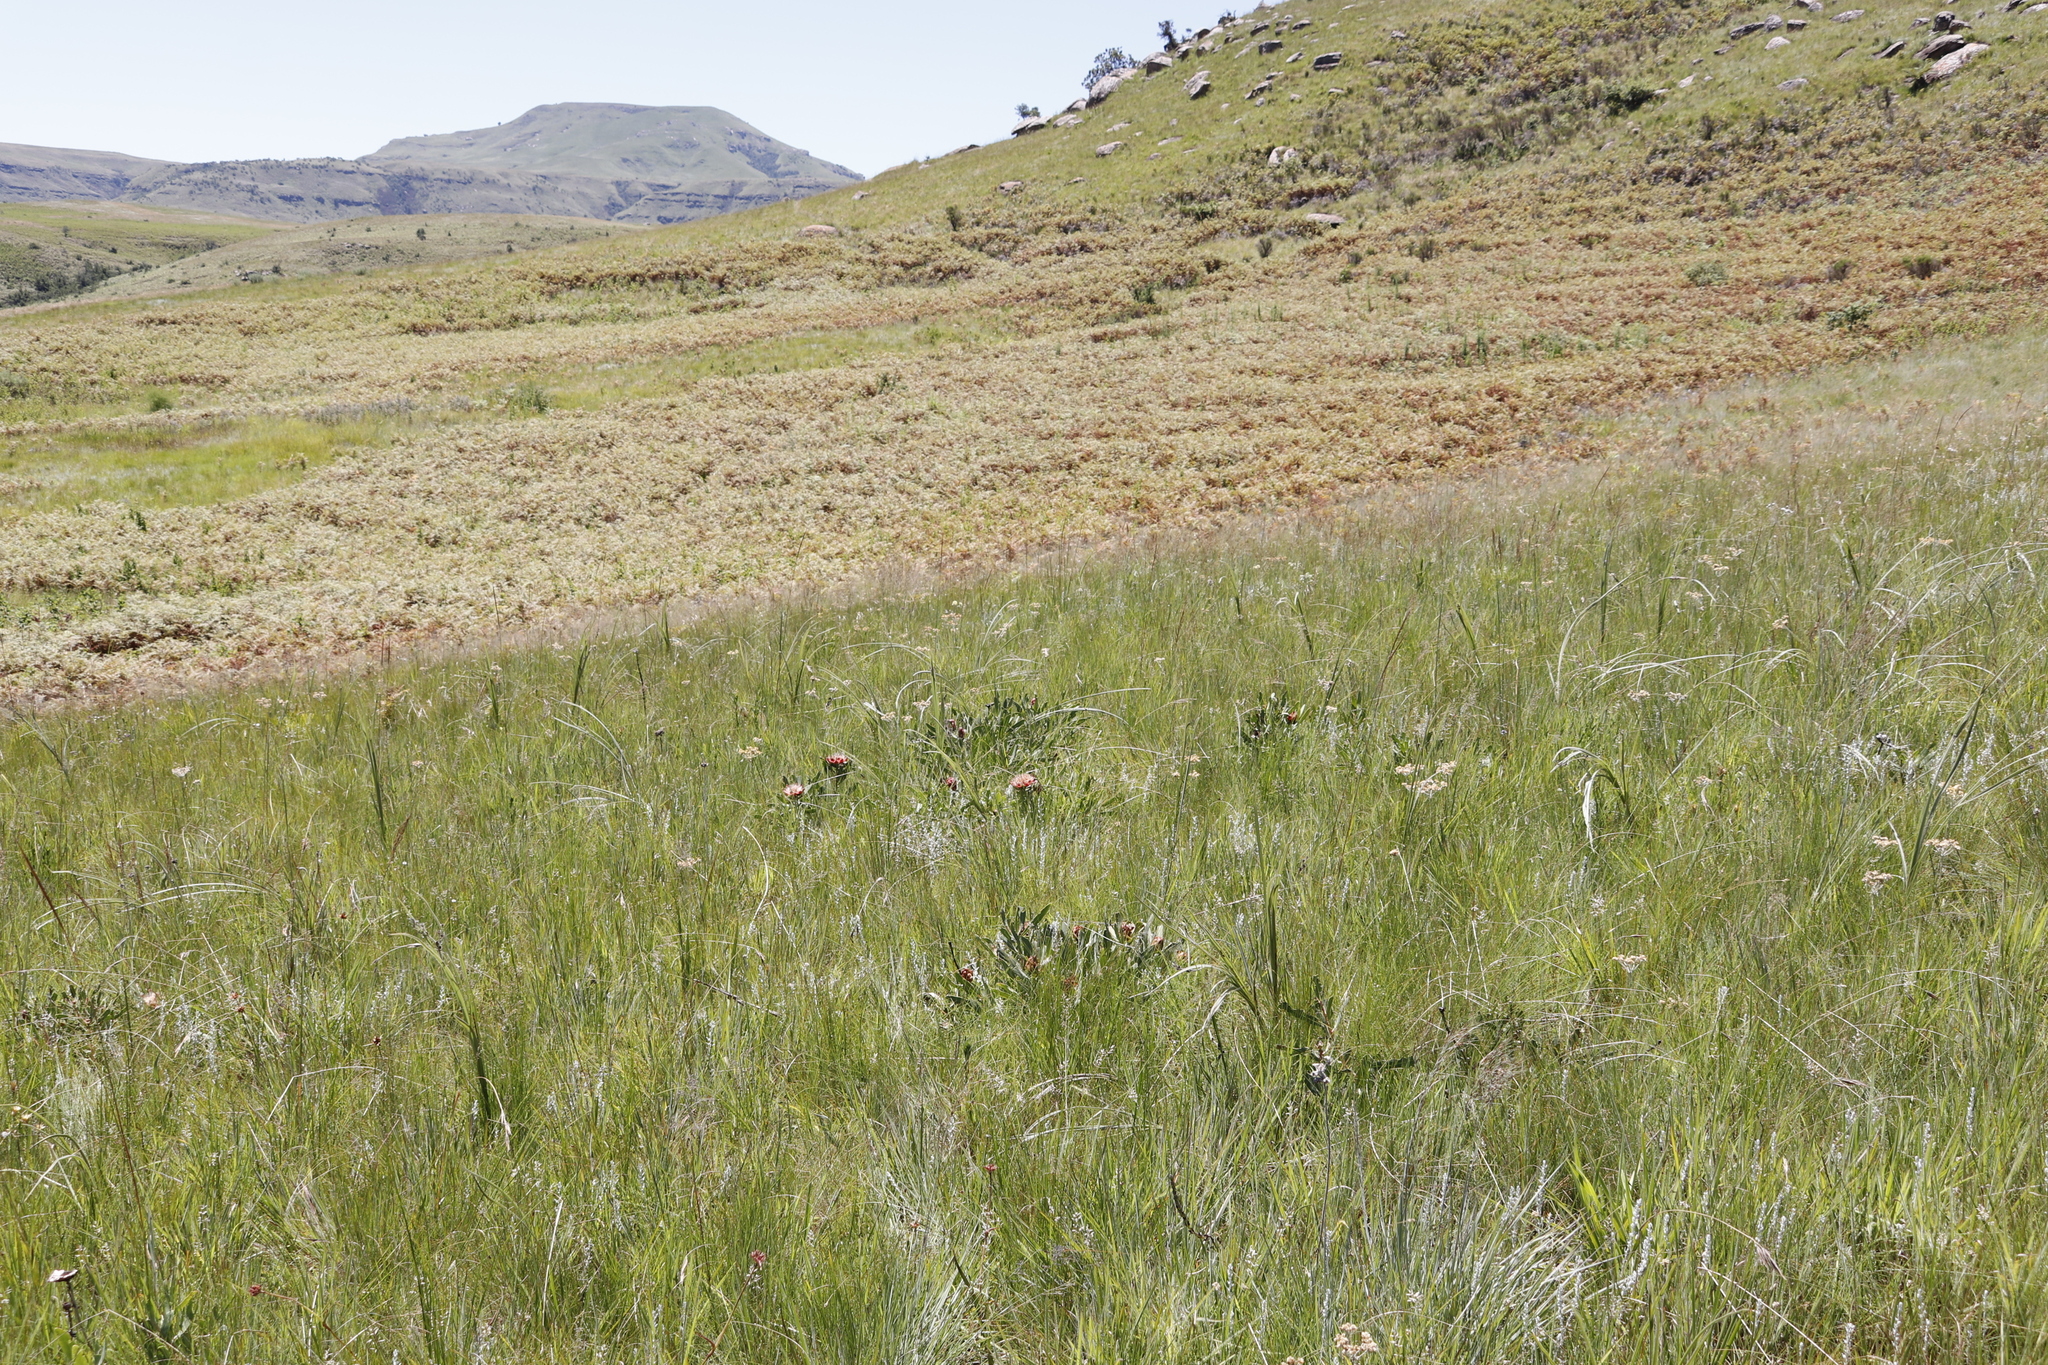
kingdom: Plantae
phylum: Tracheophyta
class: Polypodiopsida
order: Polypodiales
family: Dennstaedtiaceae
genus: Pteridium
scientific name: Pteridium aquilinum
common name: Bracken
